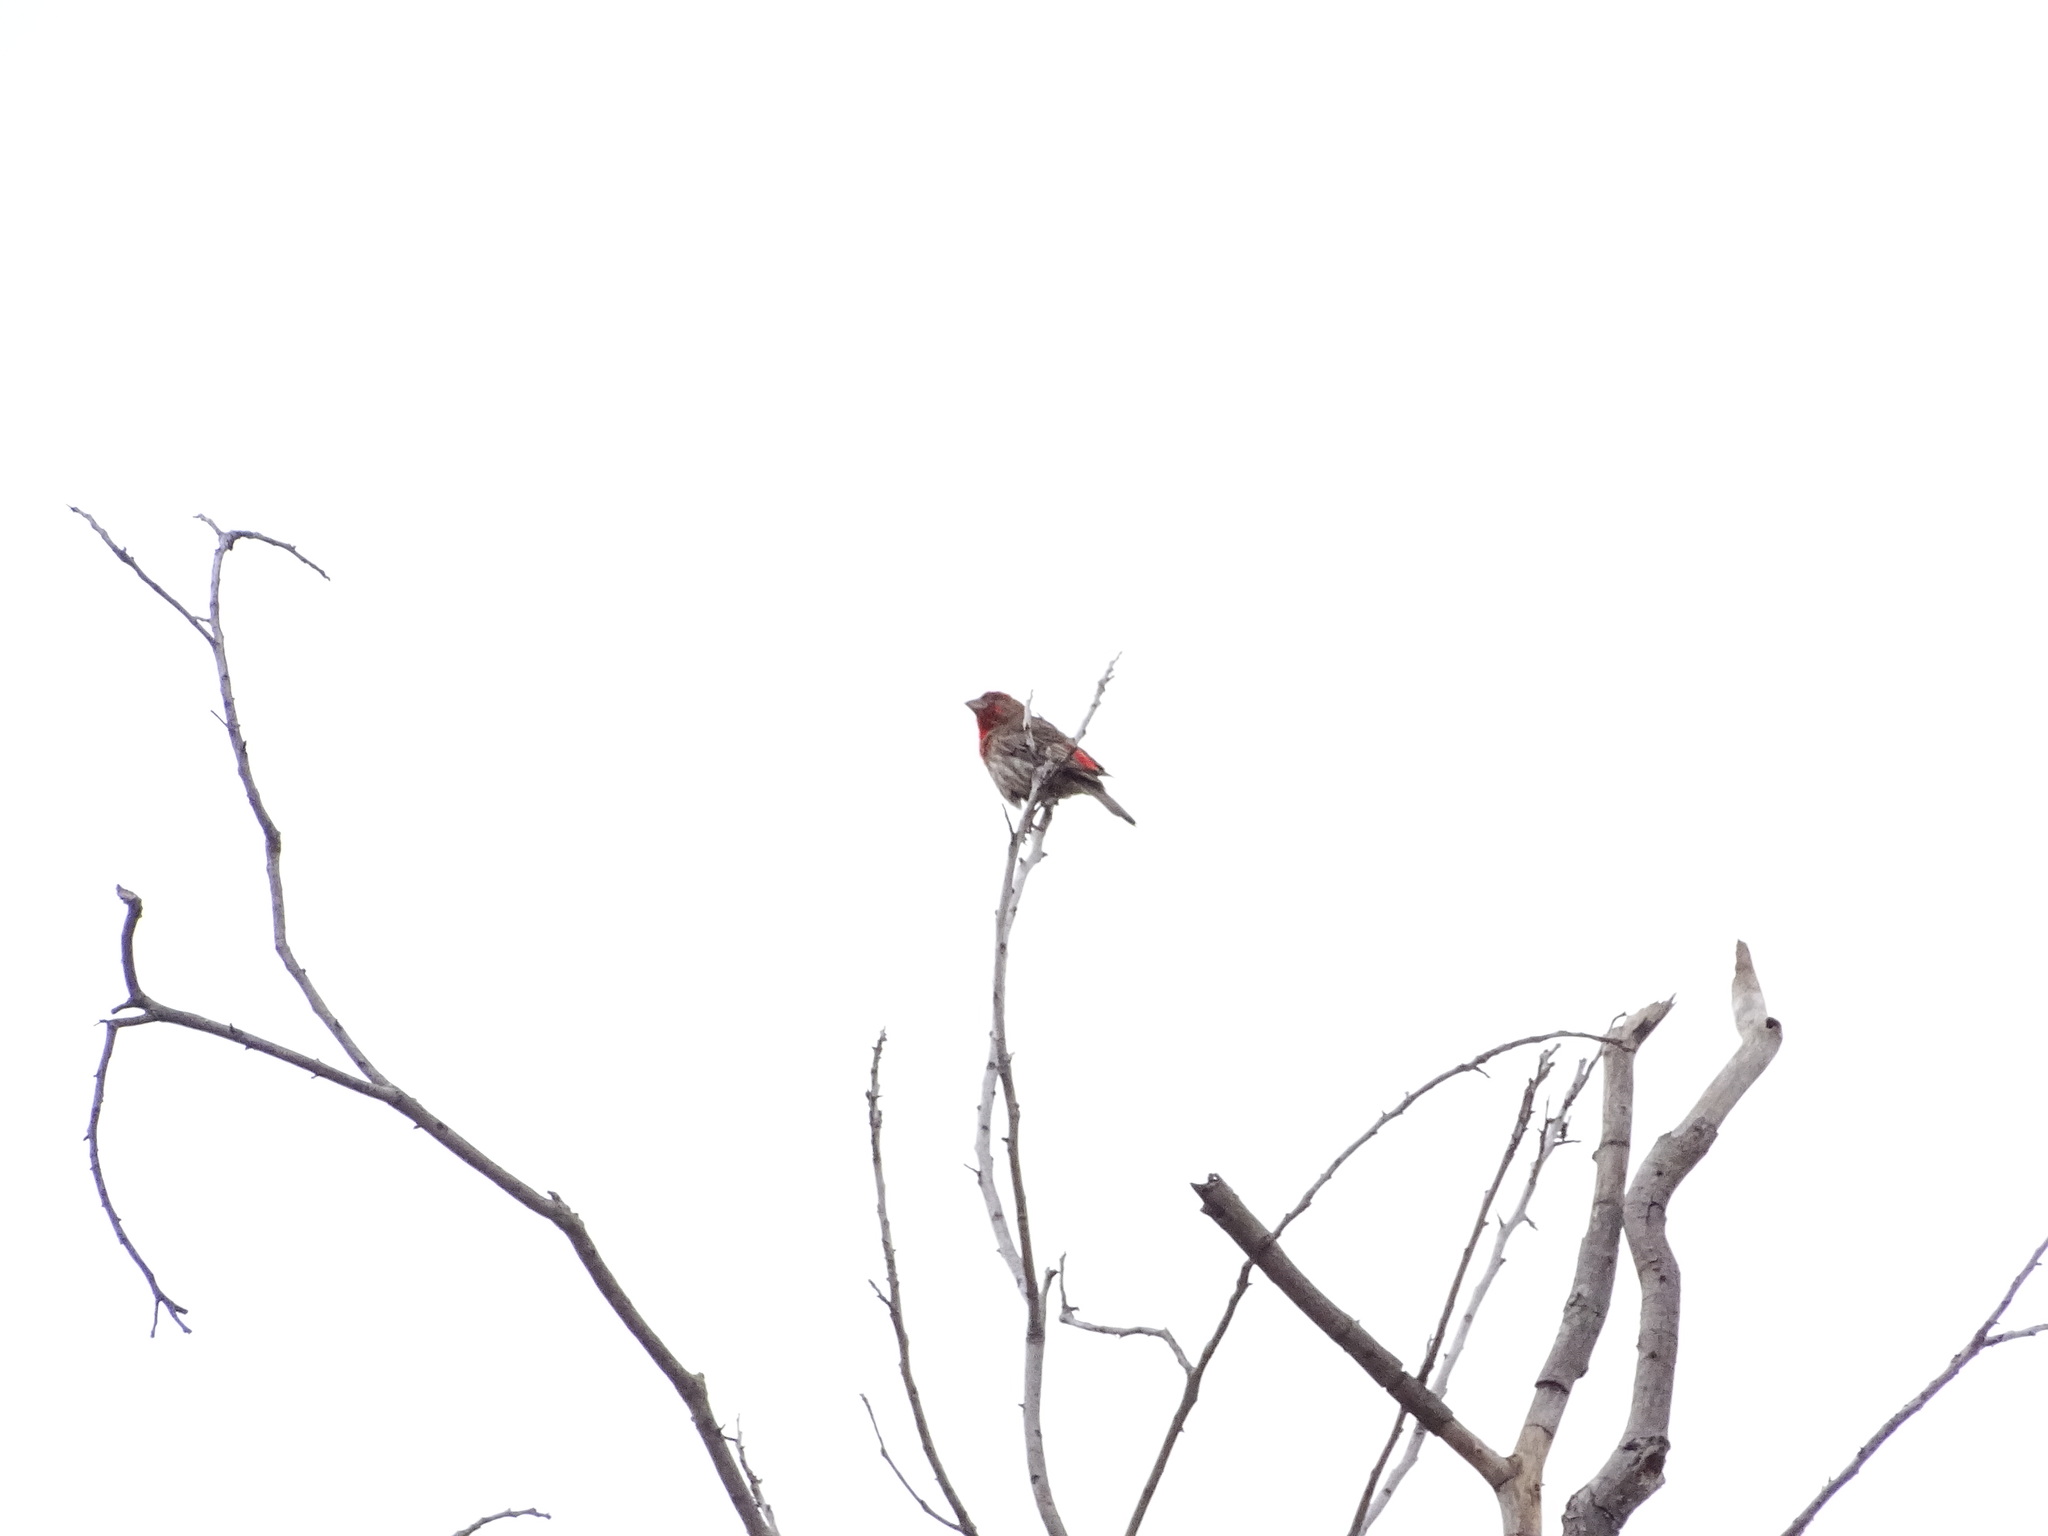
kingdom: Animalia
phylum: Chordata
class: Aves
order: Passeriformes
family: Fringillidae
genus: Haemorhous
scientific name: Haemorhous mexicanus
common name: House finch
